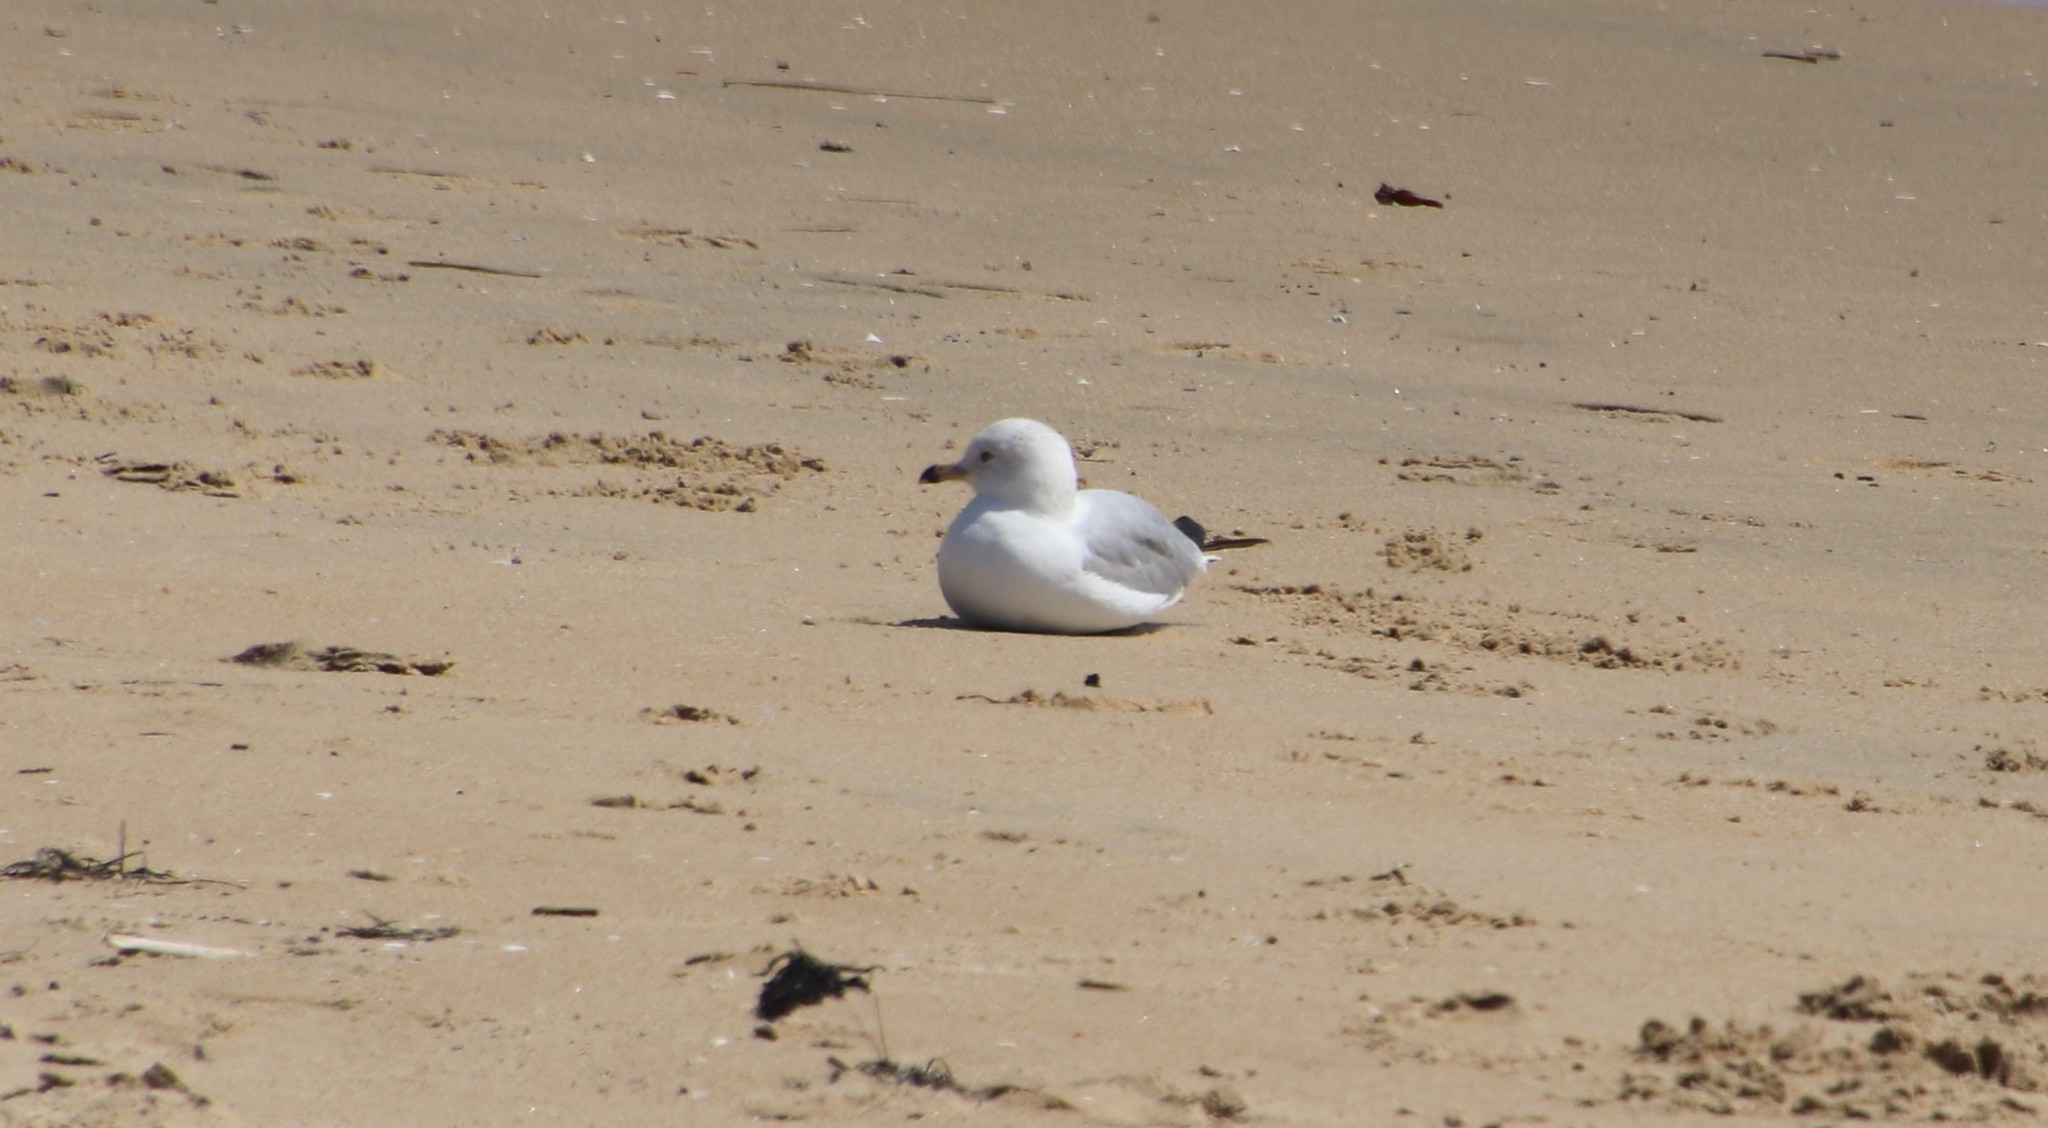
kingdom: Animalia
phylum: Chordata
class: Aves
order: Charadriiformes
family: Laridae
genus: Larus
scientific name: Larus delawarensis
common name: Ring-billed gull
